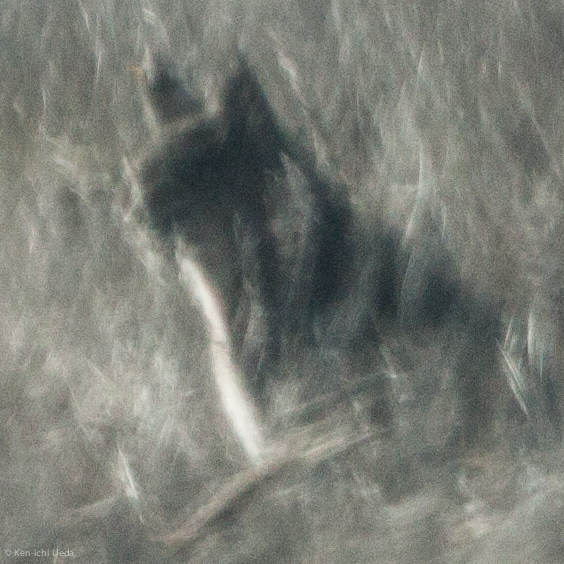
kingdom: Animalia
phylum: Chordata
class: Mammalia
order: Carnivora
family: Felidae
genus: Lynx
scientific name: Lynx rufus
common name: Bobcat
